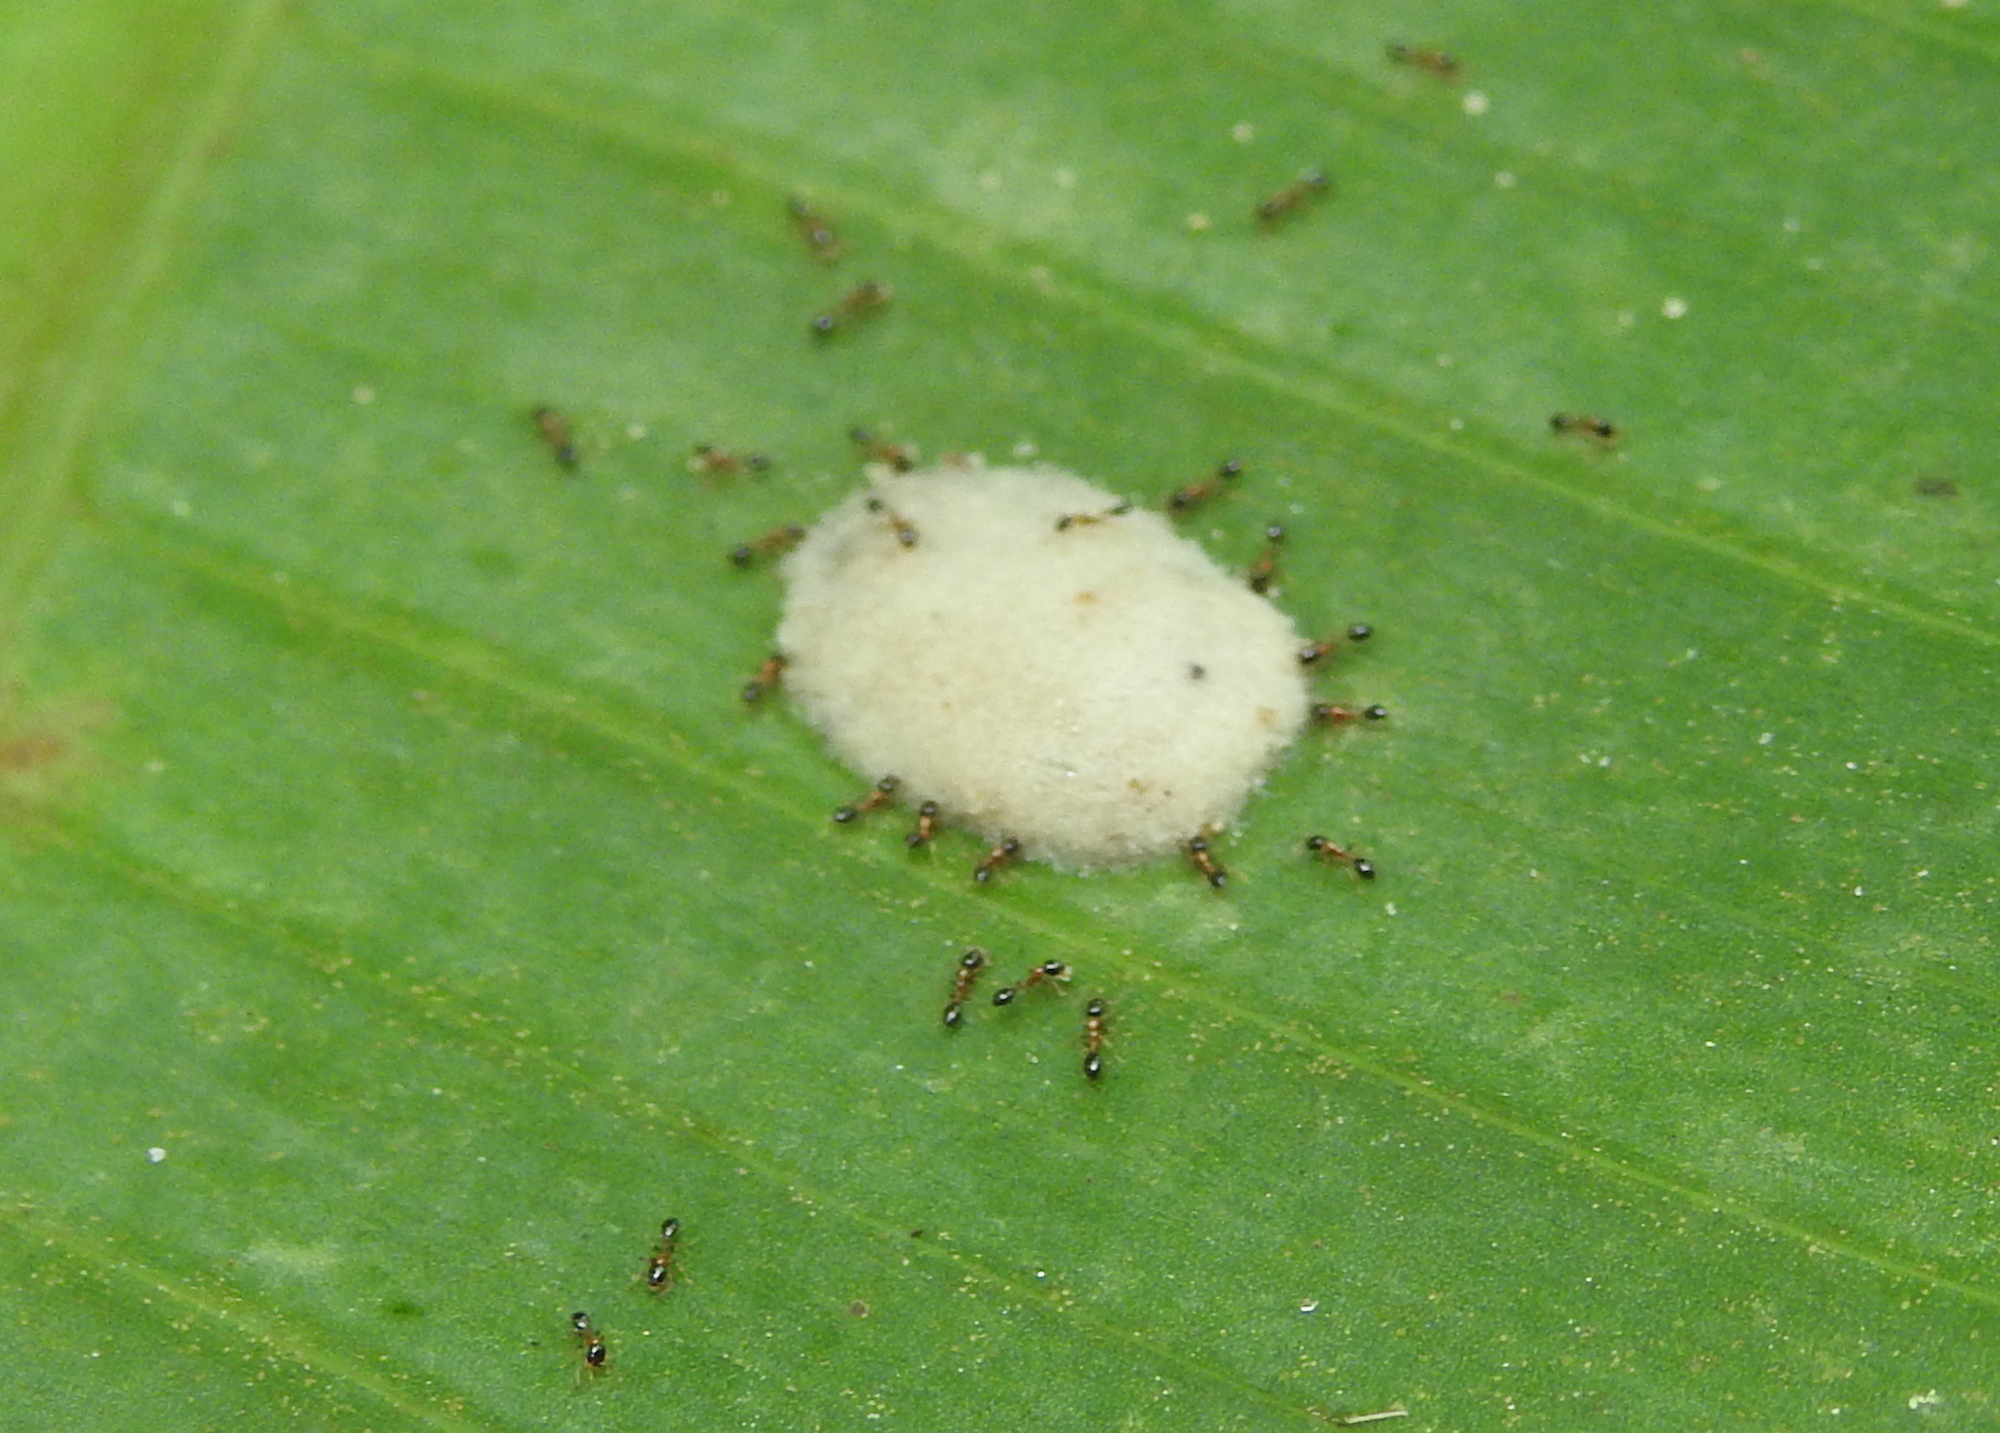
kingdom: Animalia
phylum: Arthropoda
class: Insecta
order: Hymenoptera
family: Formicidae
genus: Monomorium
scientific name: Monomorium floricola
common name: Bicolored trailing ant
